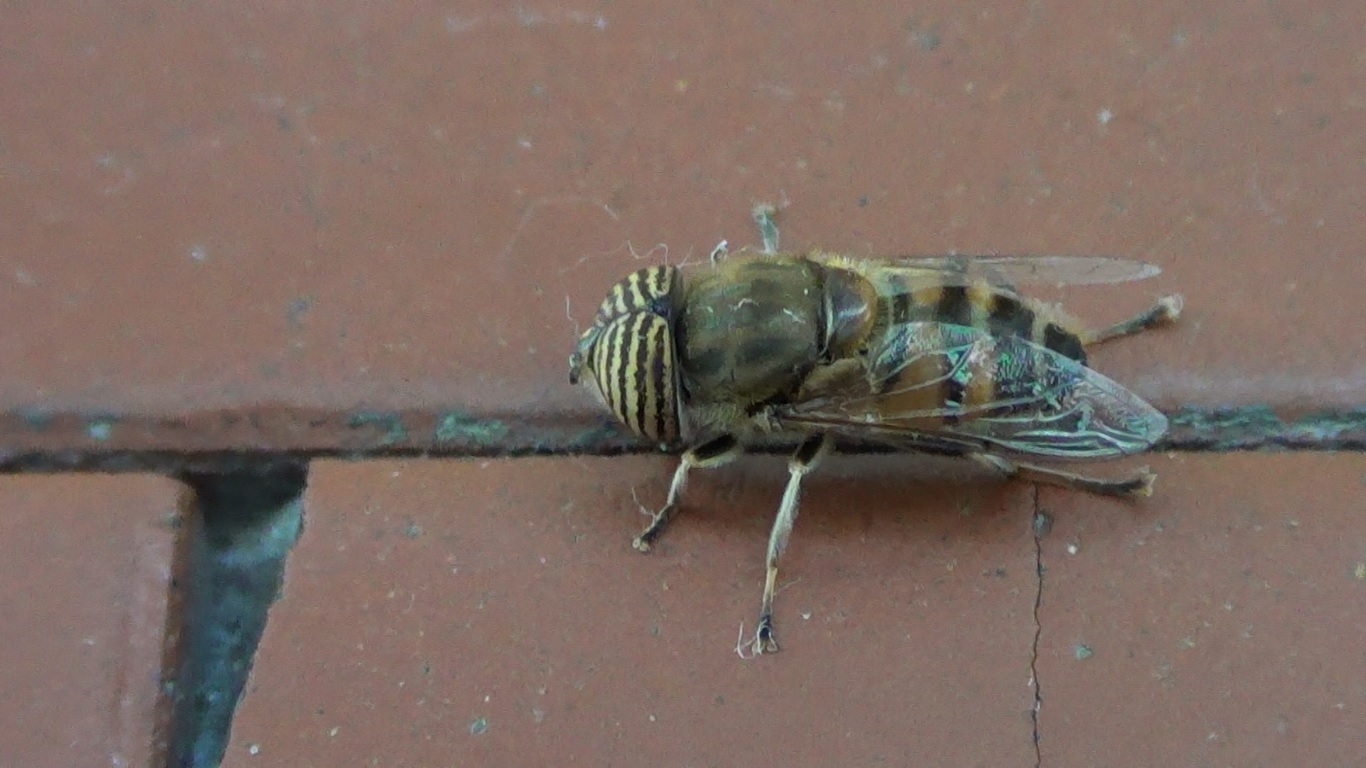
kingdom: Animalia
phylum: Arthropoda
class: Insecta
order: Diptera
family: Syrphidae
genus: Eristalinus
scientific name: Eristalinus taeniops
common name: Syrphid fly
